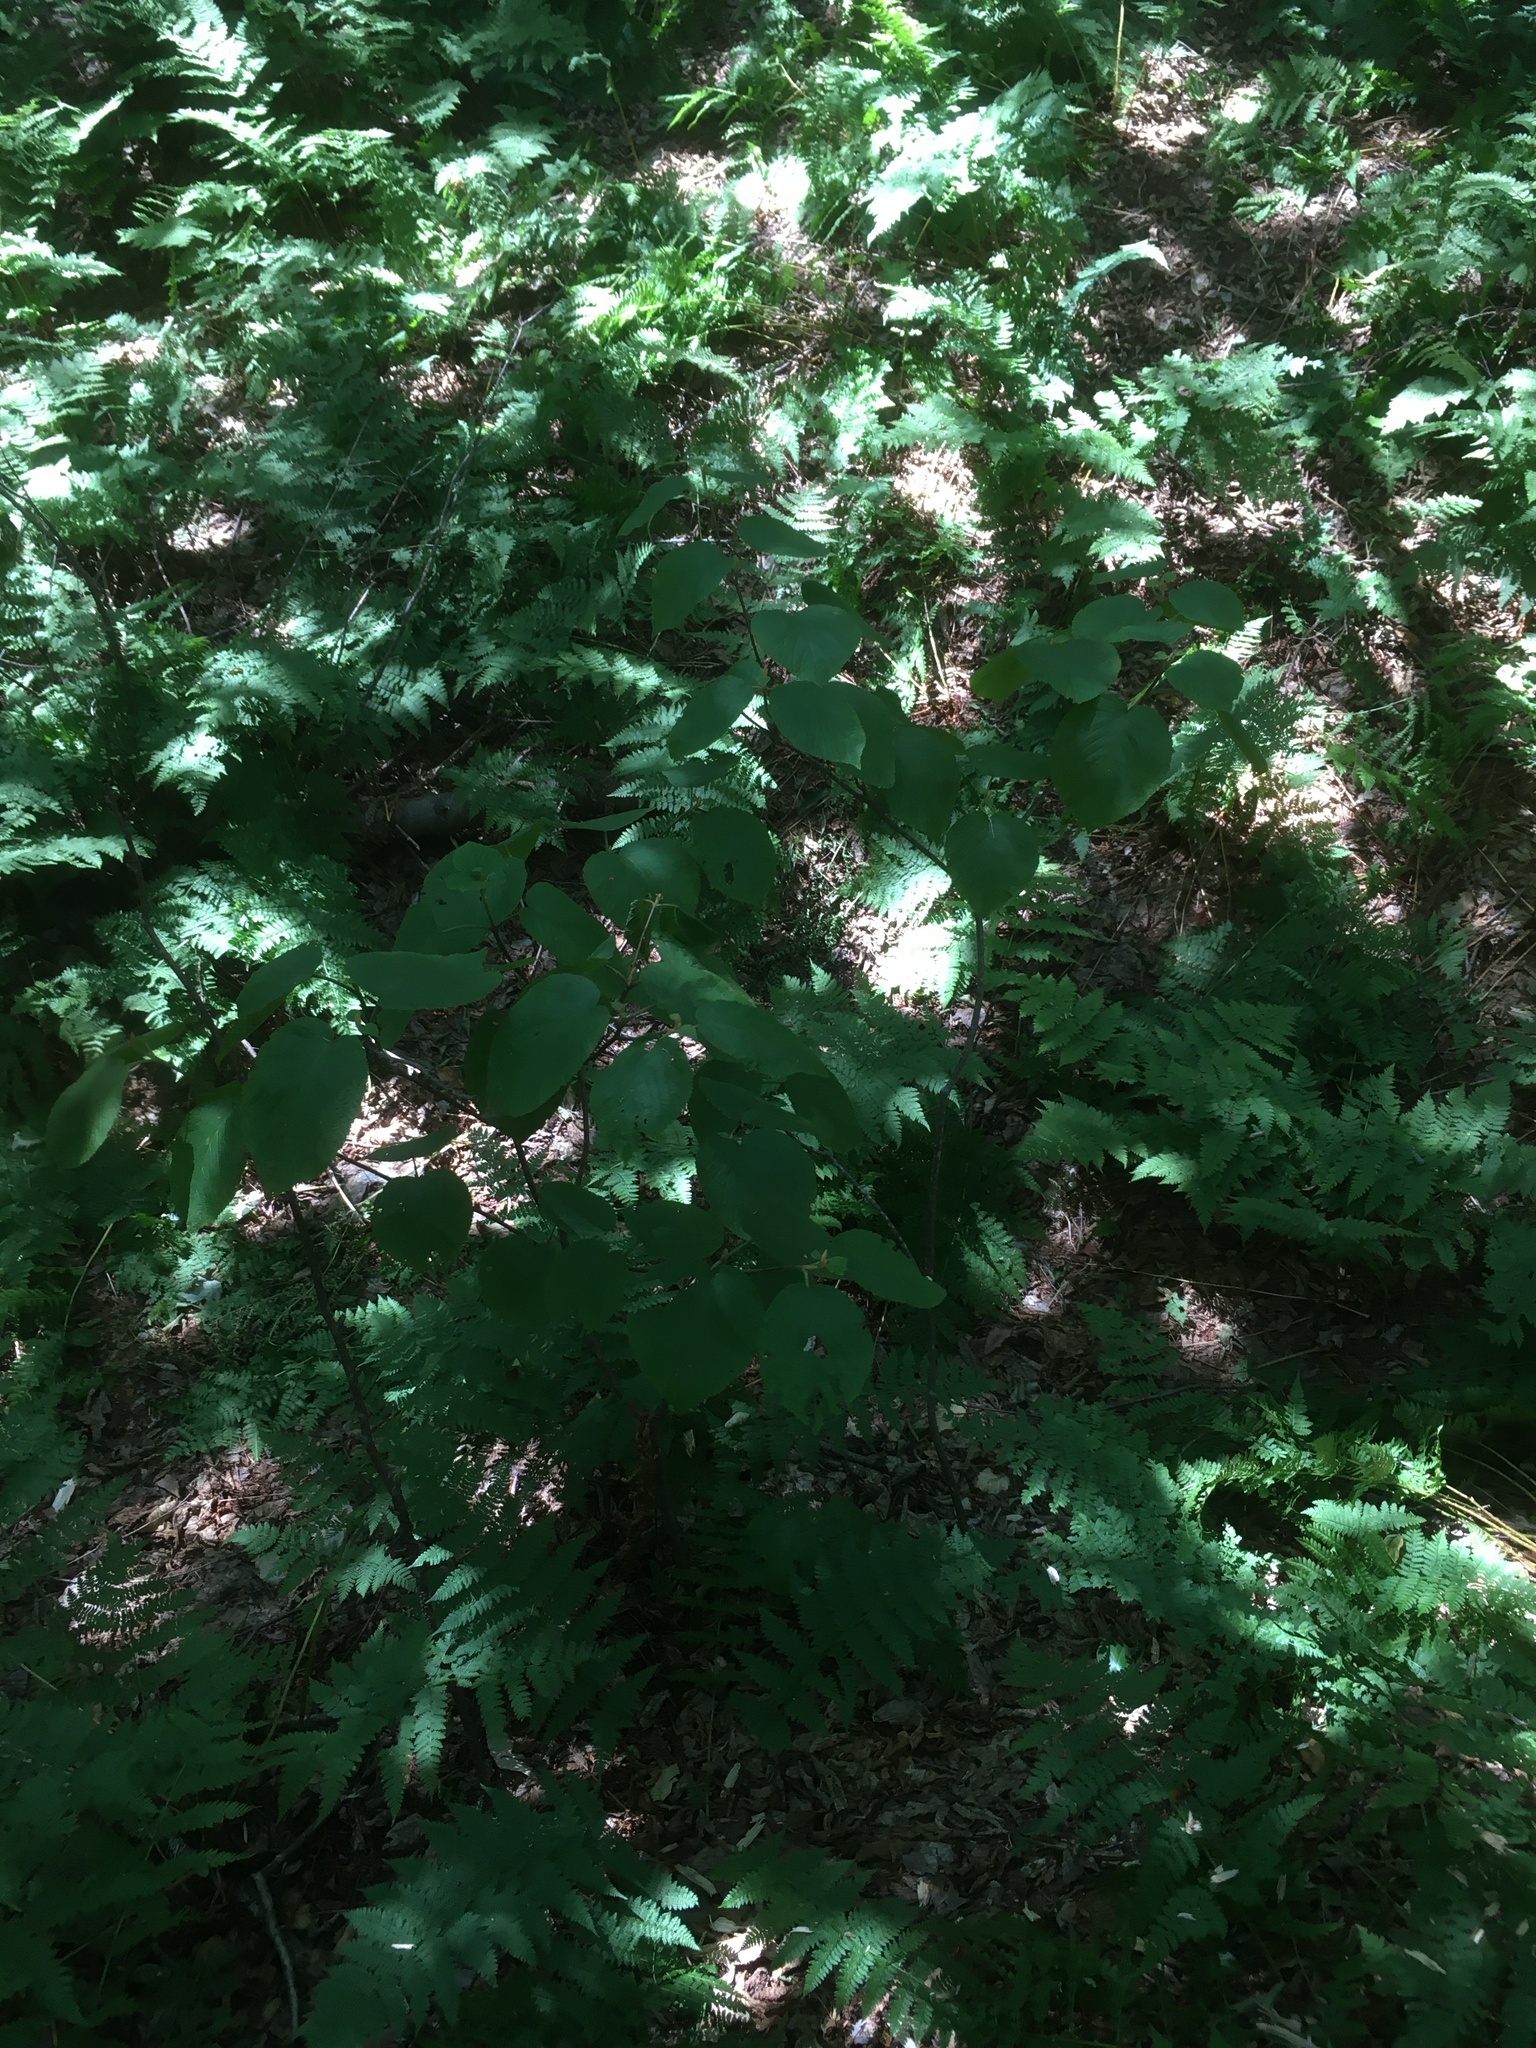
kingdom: Plantae
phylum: Tracheophyta
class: Magnoliopsida
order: Dipsacales
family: Viburnaceae
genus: Viburnum
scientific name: Viburnum lantanoides
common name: Hobblebush
